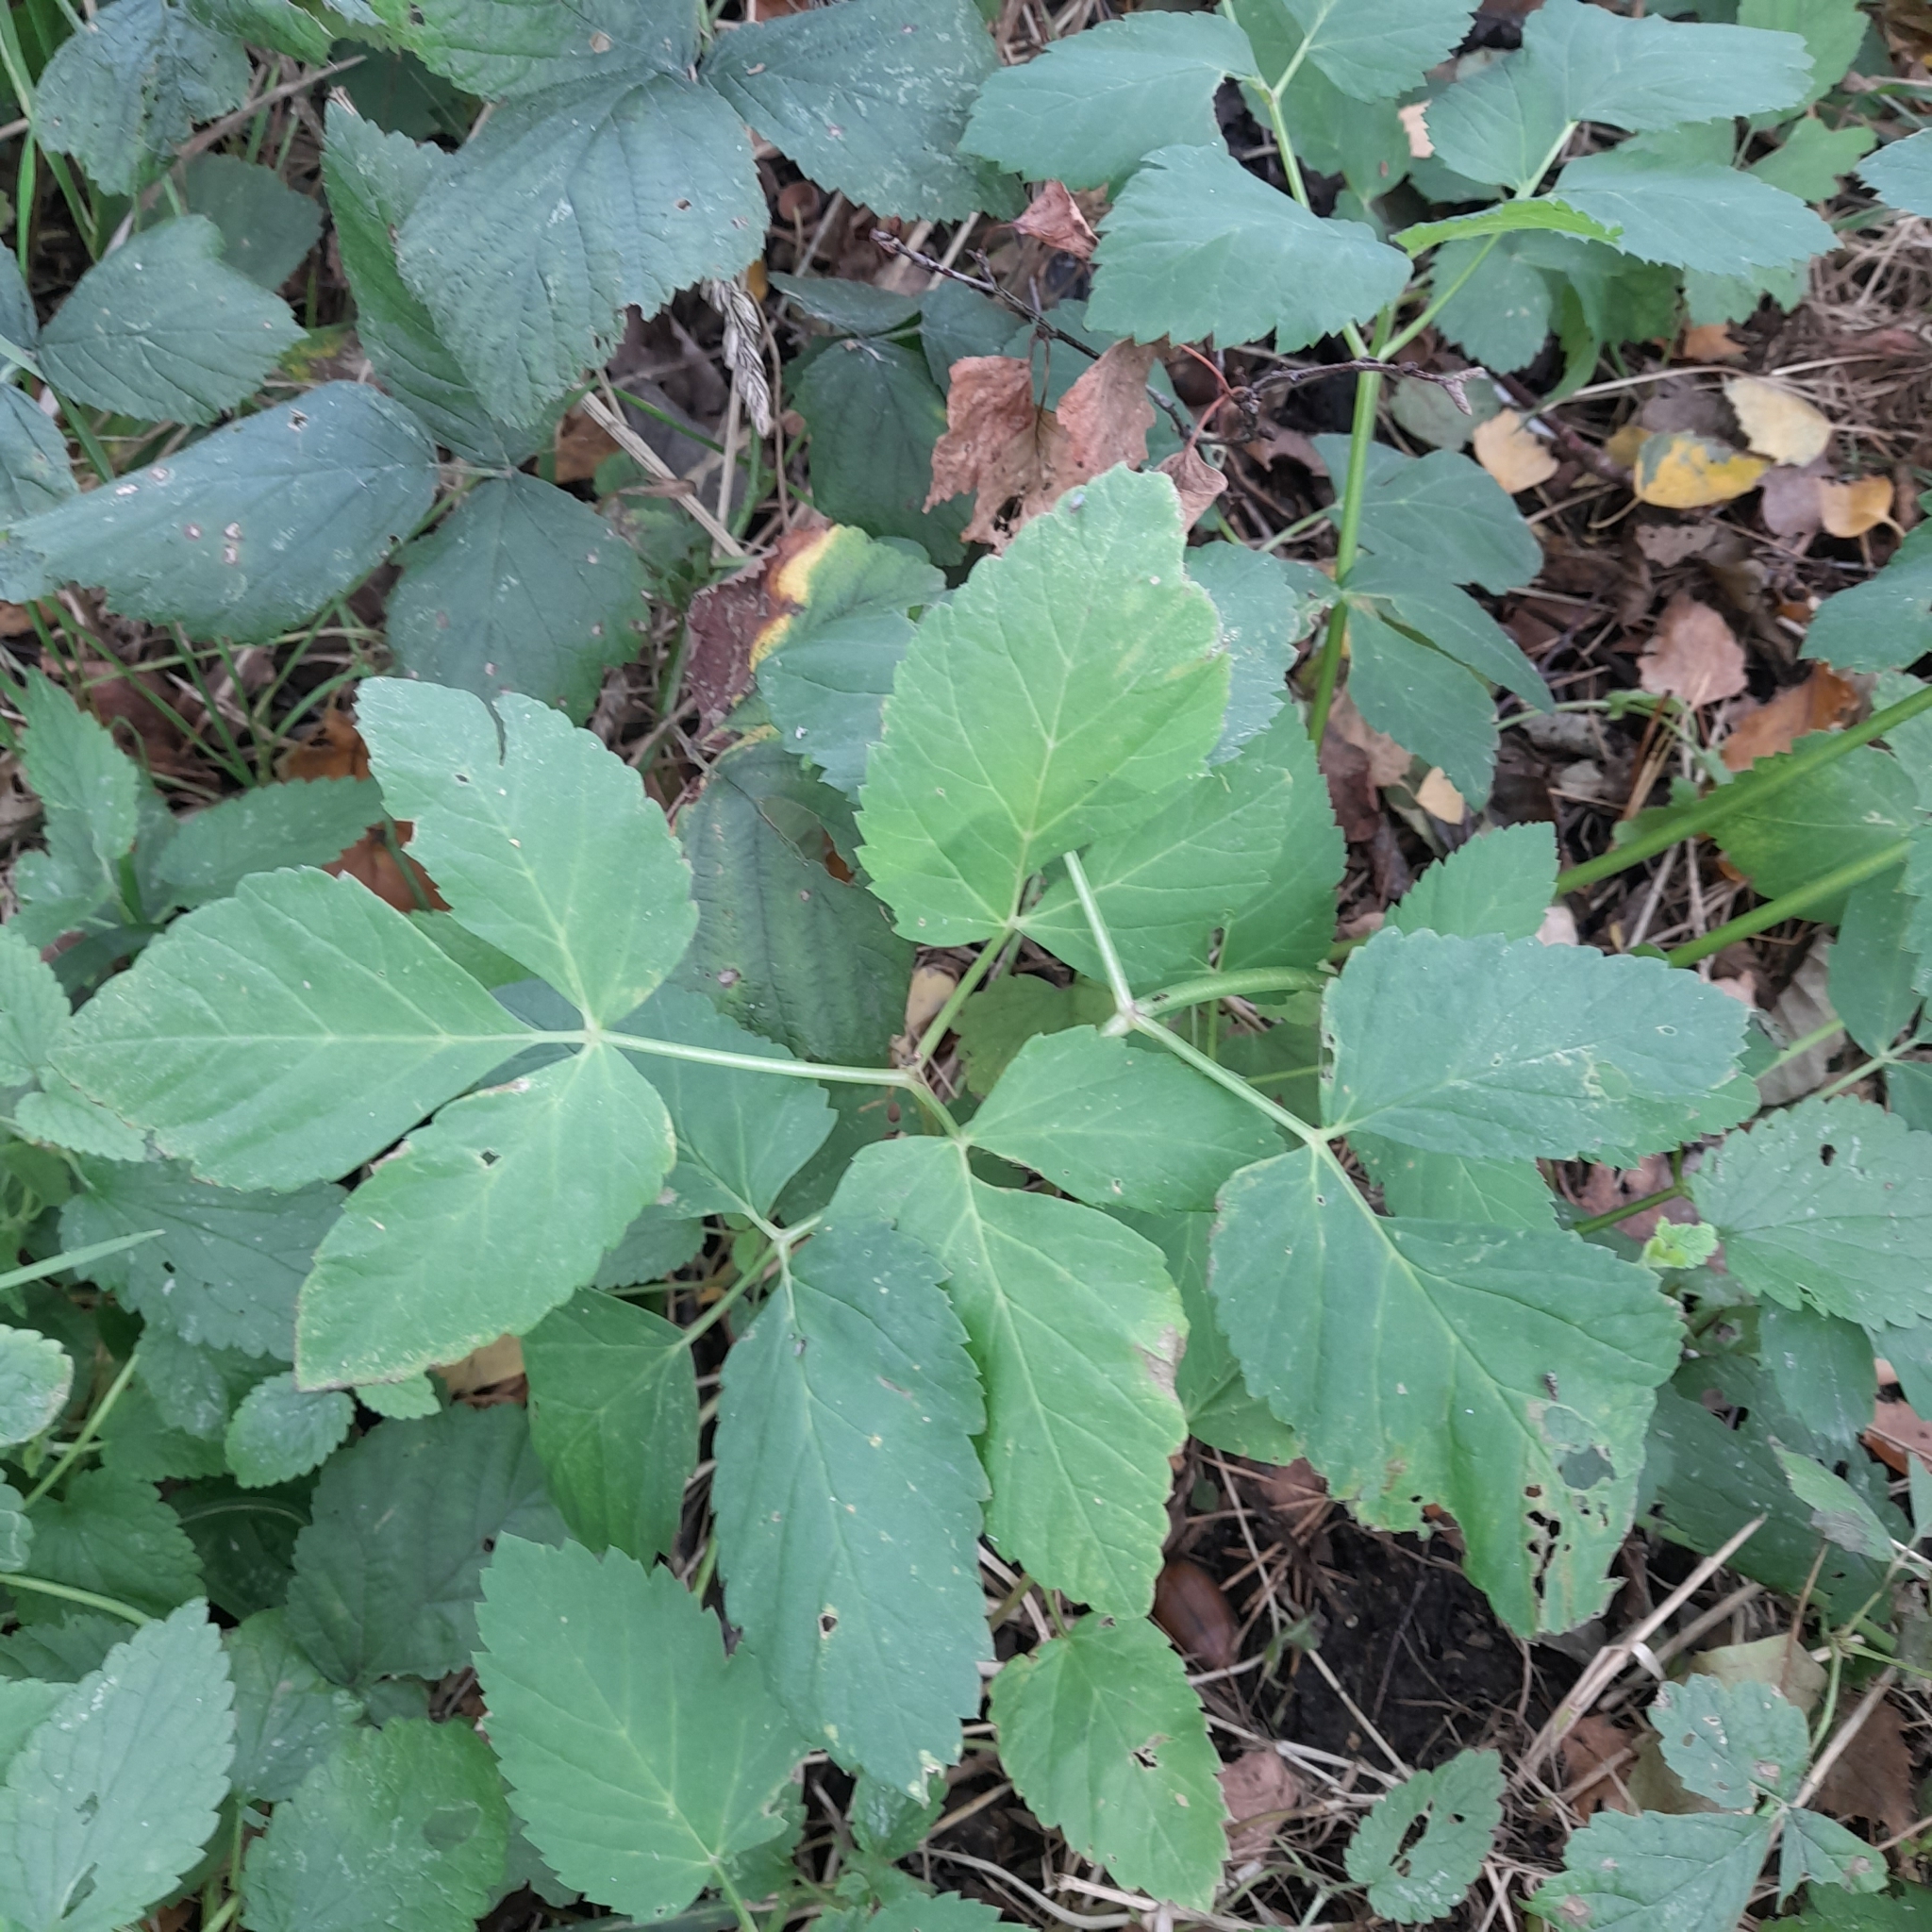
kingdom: Plantae
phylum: Tracheophyta
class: Magnoliopsida
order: Apiales
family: Apiaceae
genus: Aegopodium
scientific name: Aegopodium podagraria
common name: Ground-elder
